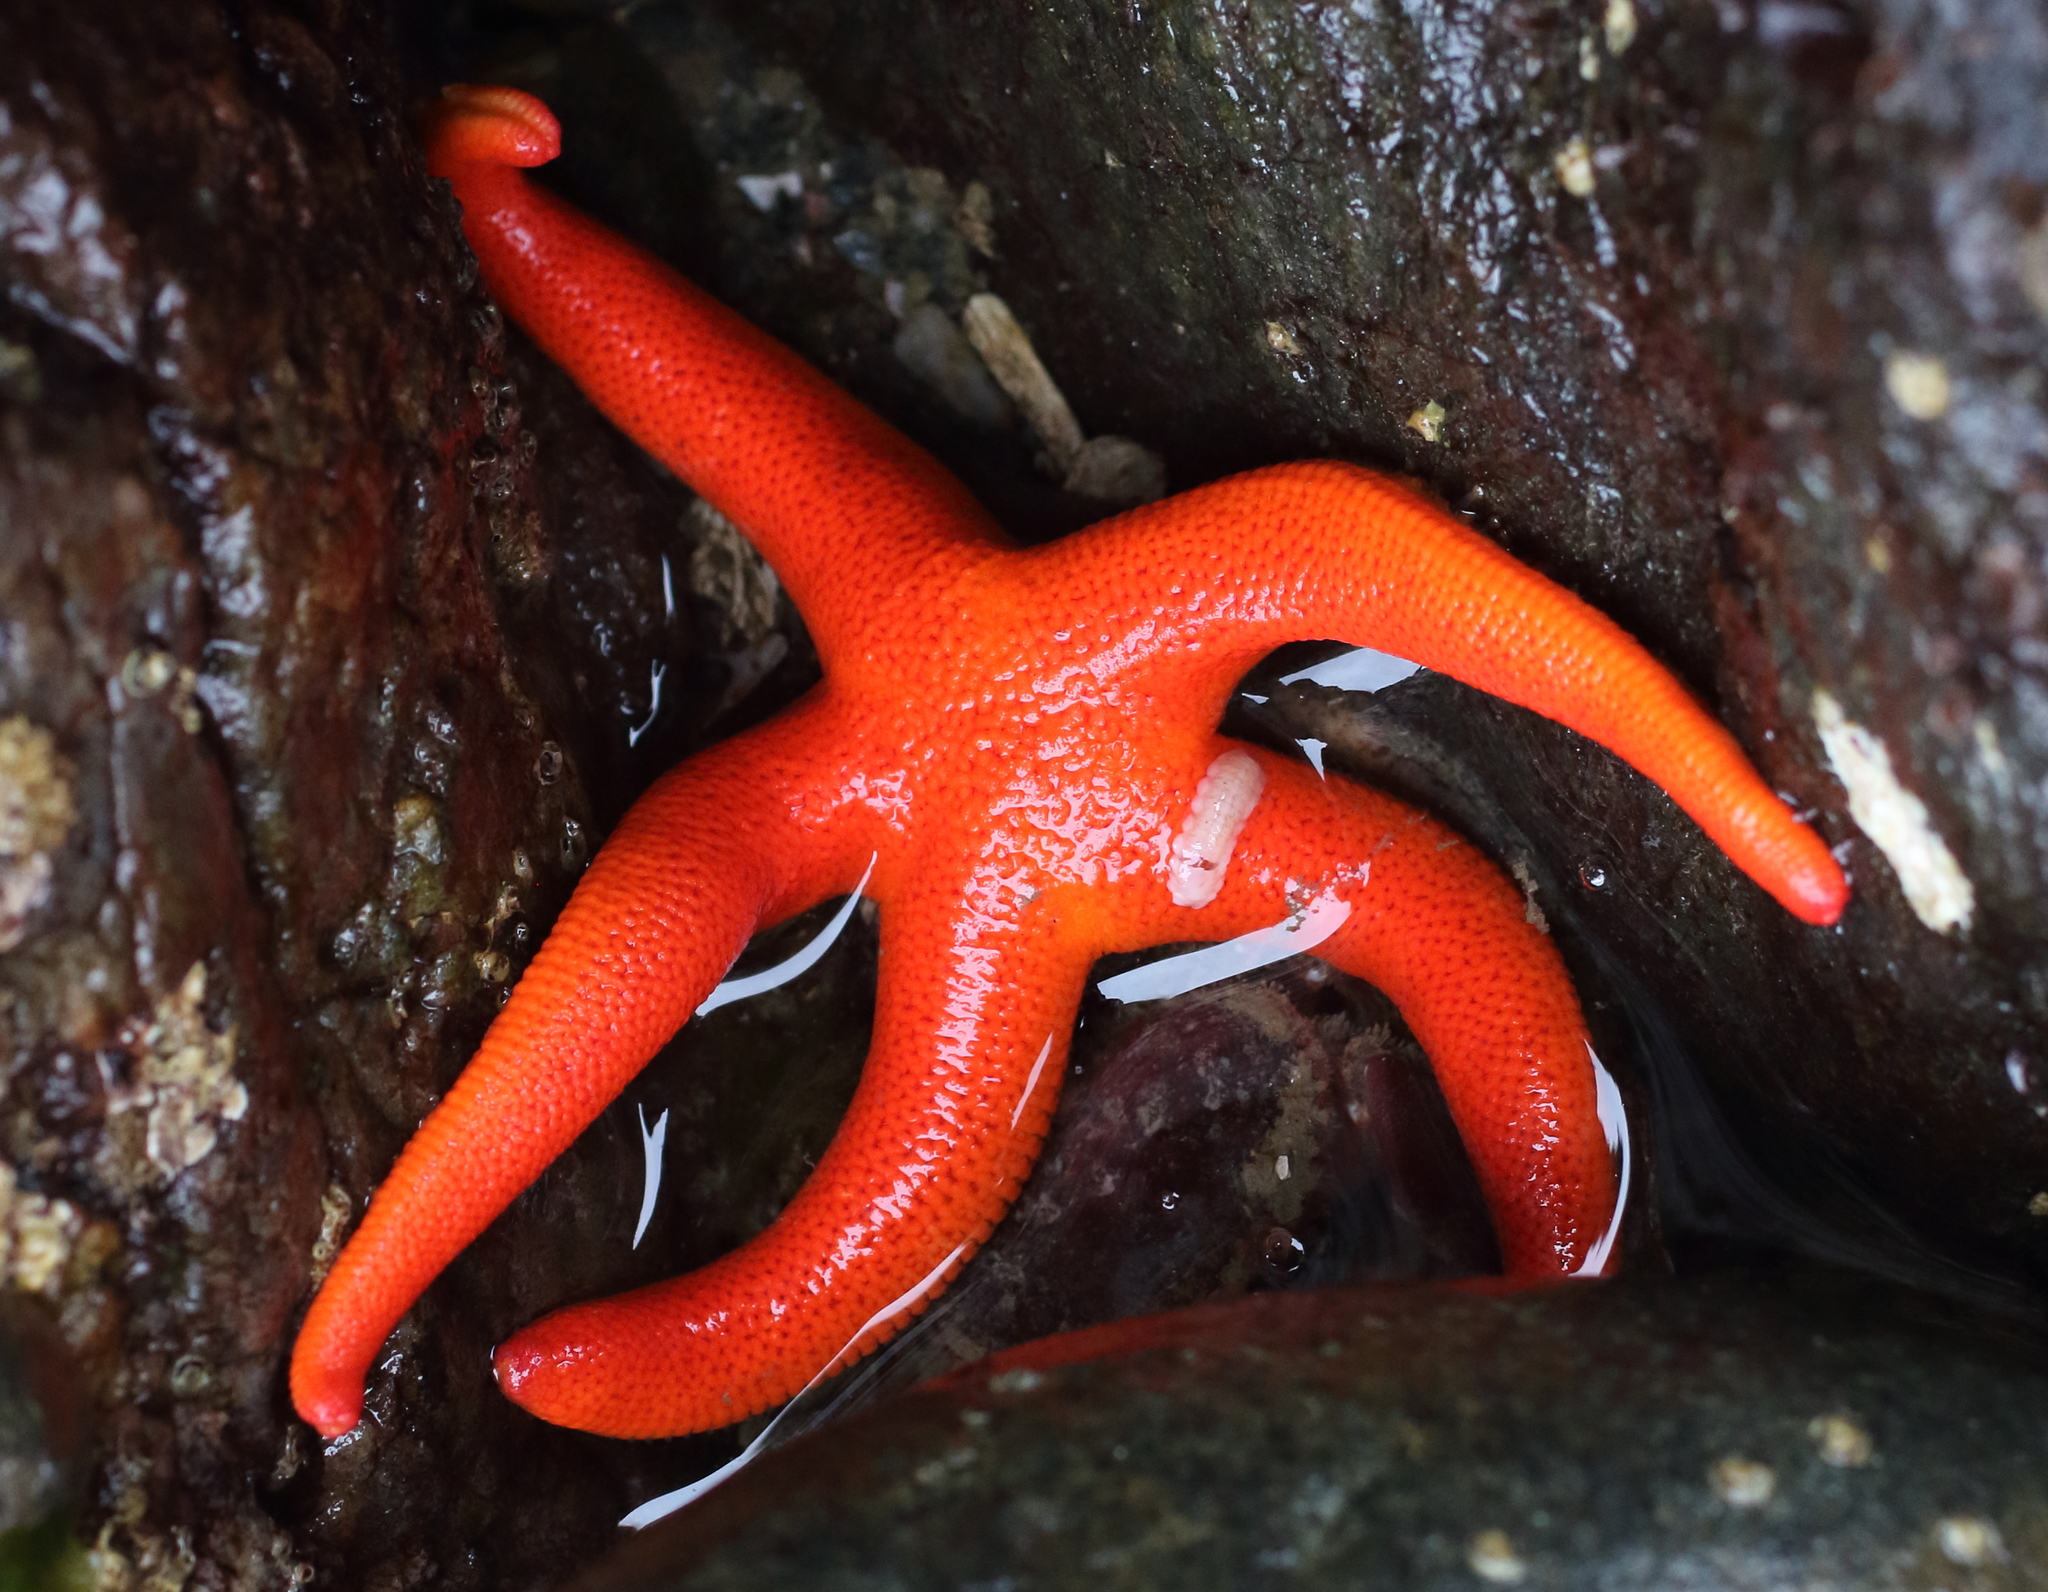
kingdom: Animalia
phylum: Echinodermata
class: Asteroidea
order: Spinulosida
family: Echinasteridae
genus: Henricia
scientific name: Henricia leviuscula
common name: Pacific blood star
